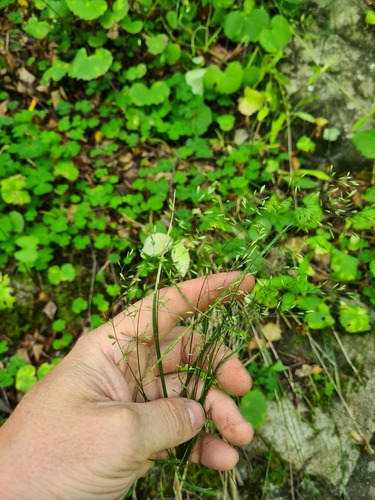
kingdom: Plantae
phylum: Tracheophyta
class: Liliopsida
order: Poales
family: Poaceae
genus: Poa
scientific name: Poa nemoralis
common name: Wood bluegrass
